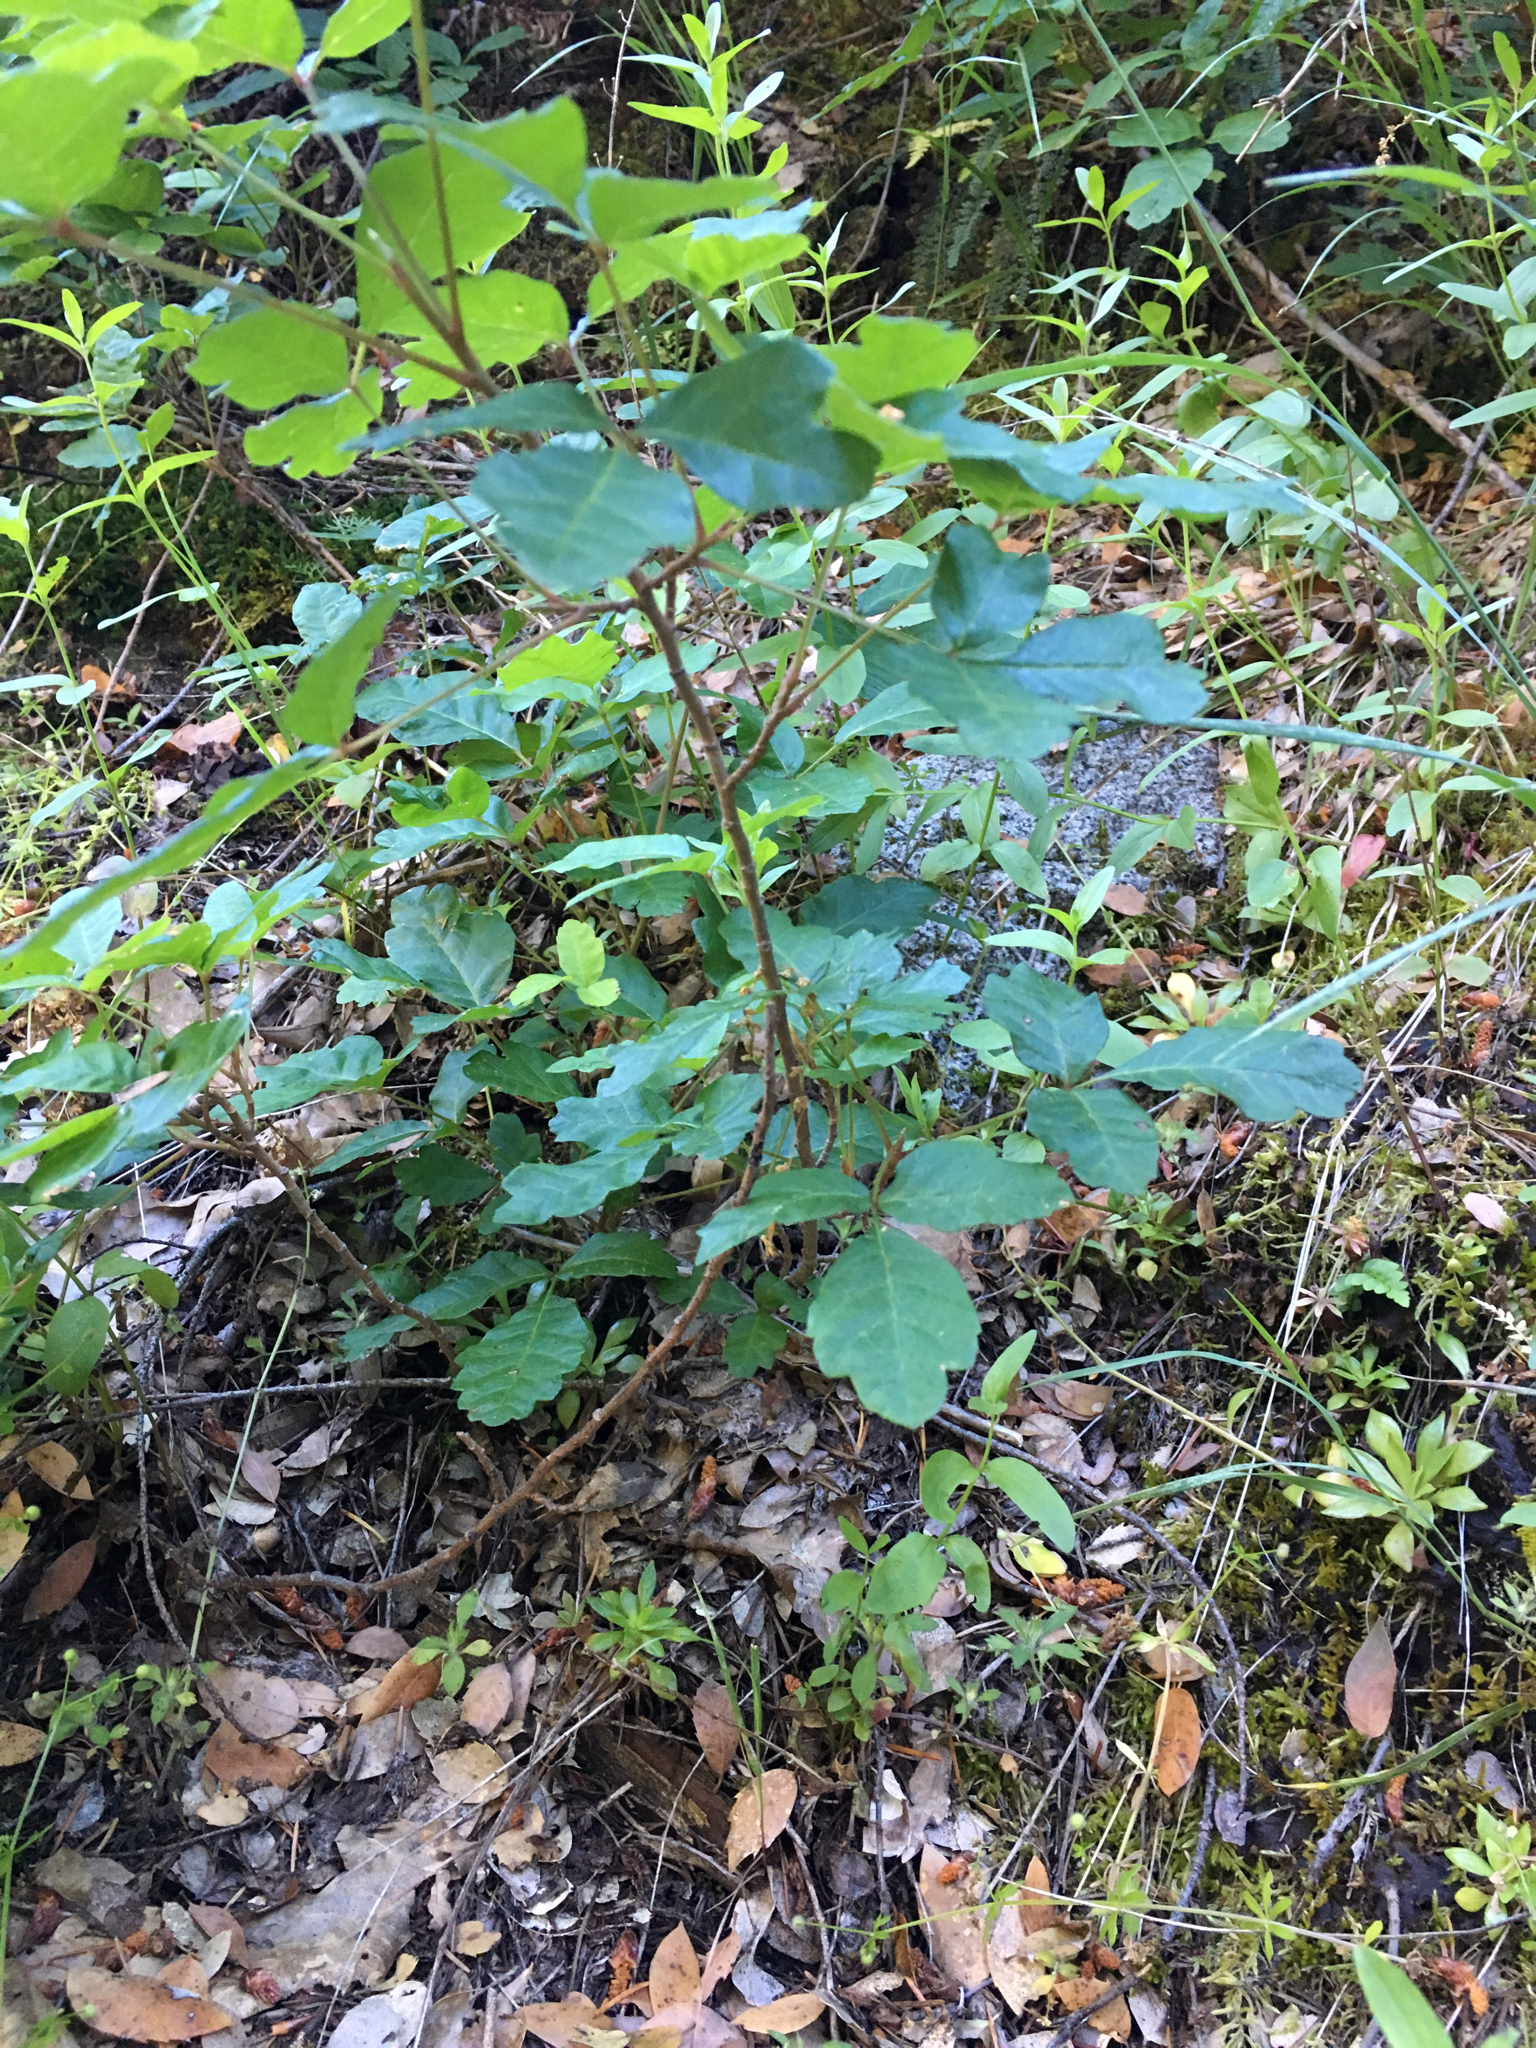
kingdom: Plantae
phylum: Tracheophyta
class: Magnoliopsida
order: Sapindales
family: Anacardiaceae
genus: Toxicodendron
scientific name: Toxicodendron diversilobum
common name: Pacific poison-oak
